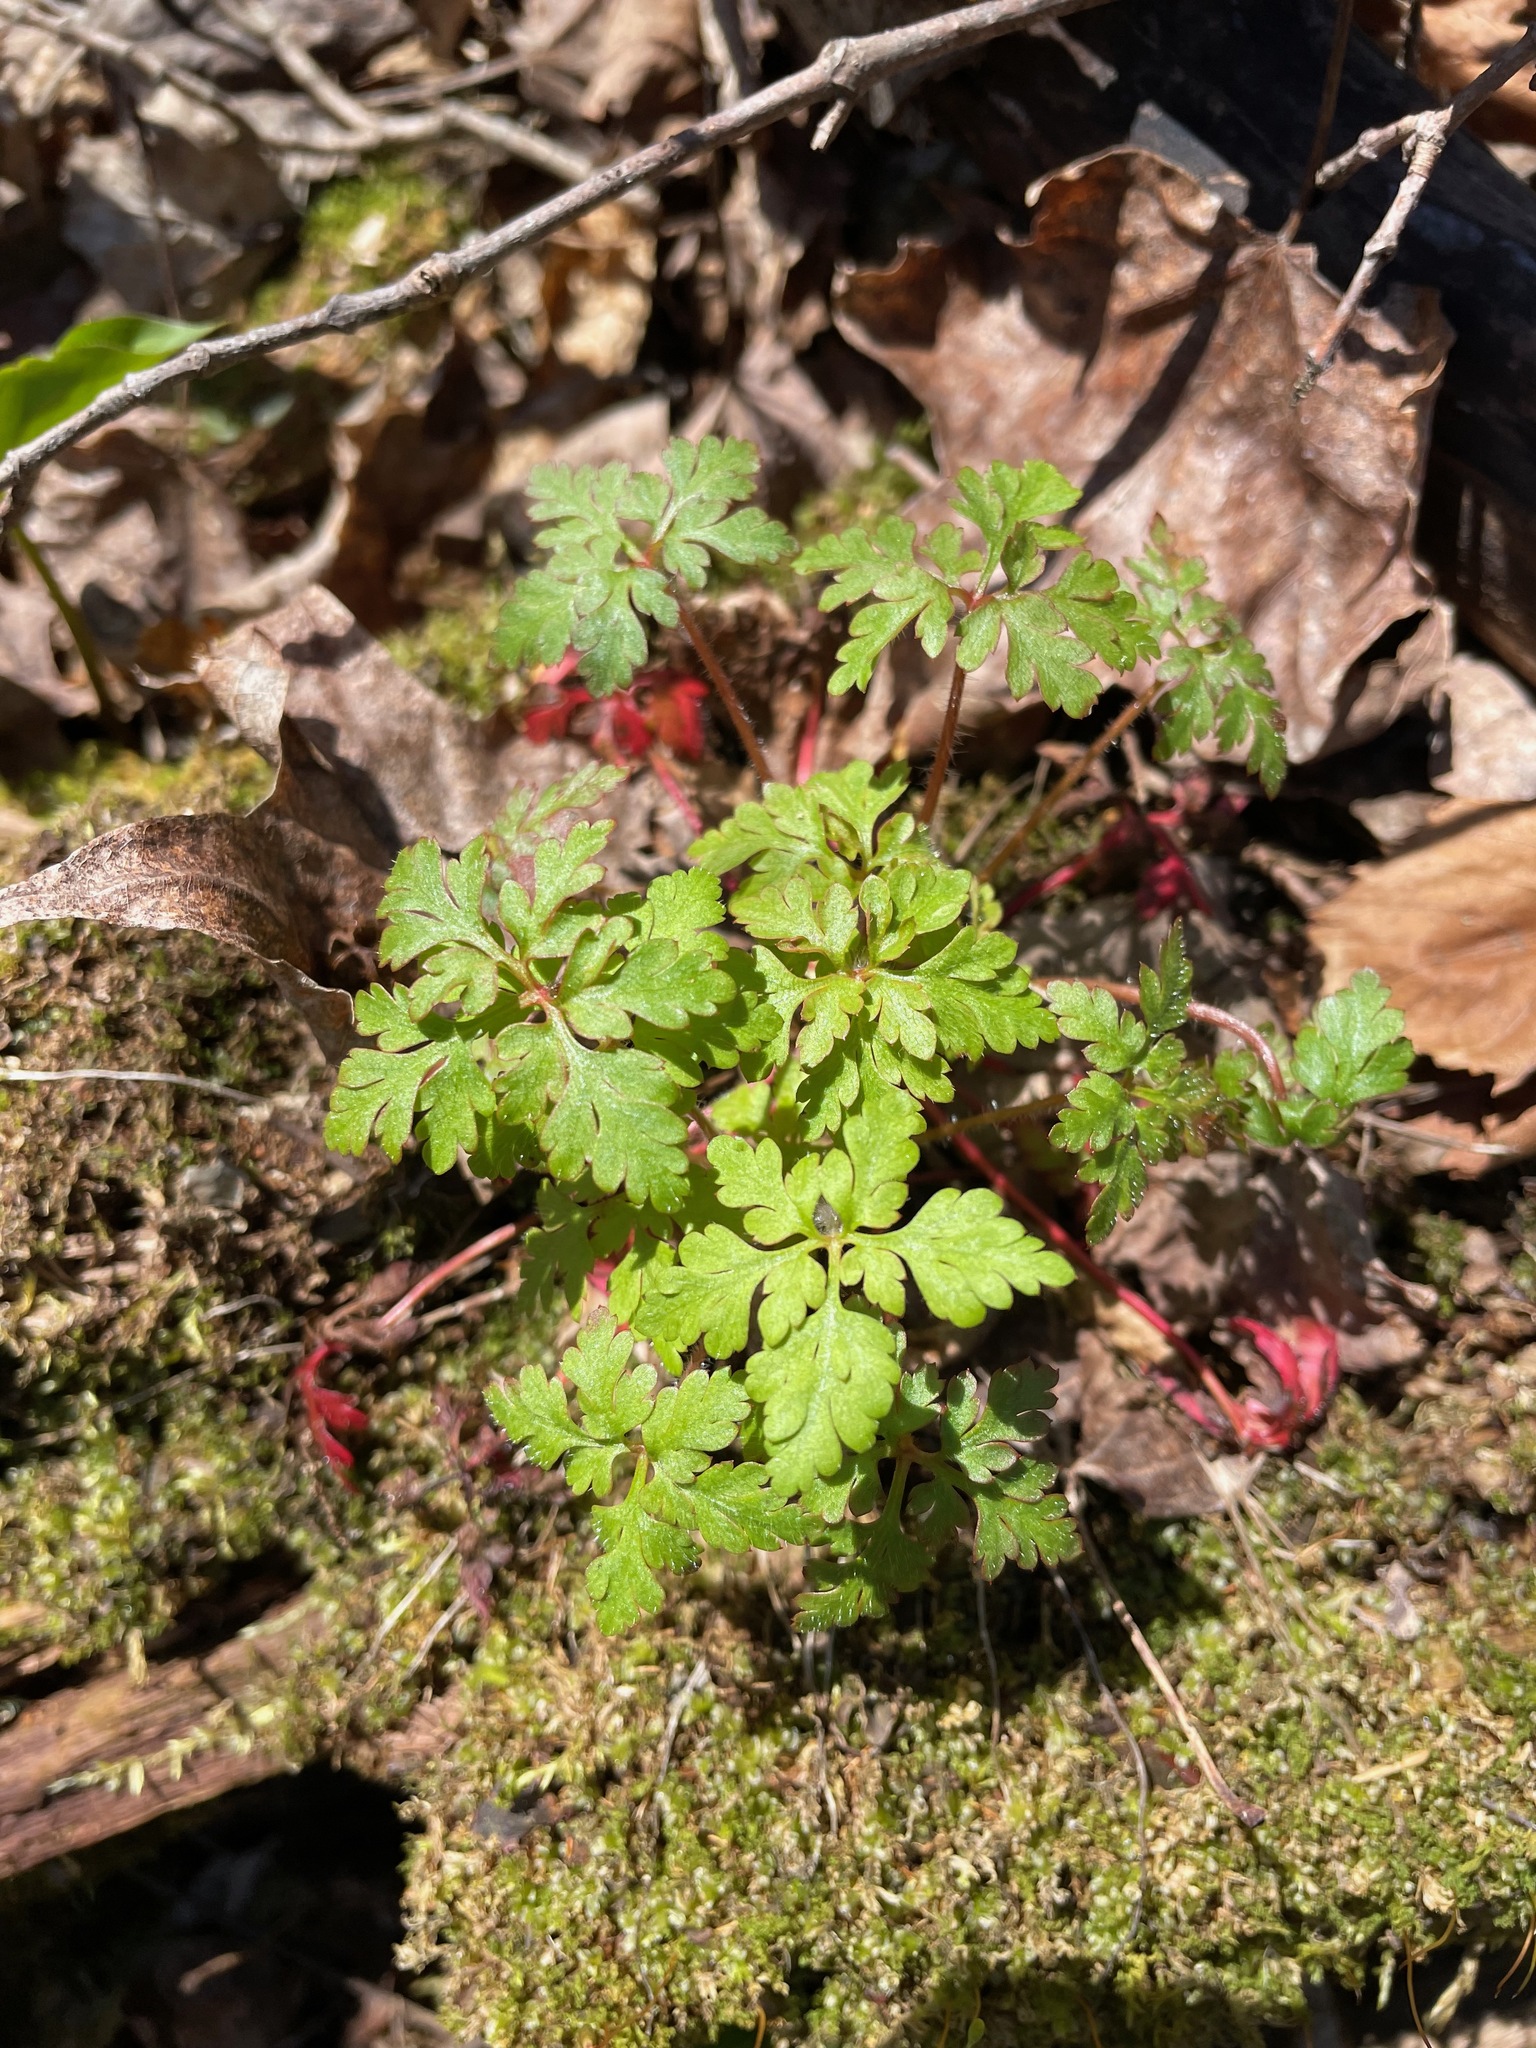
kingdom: Plantae
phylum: Tracheophyta
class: Magnoliopsida
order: Geraniales
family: Geraniaceae
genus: Geranium
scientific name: Geranium robertianum
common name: Herb-robert
